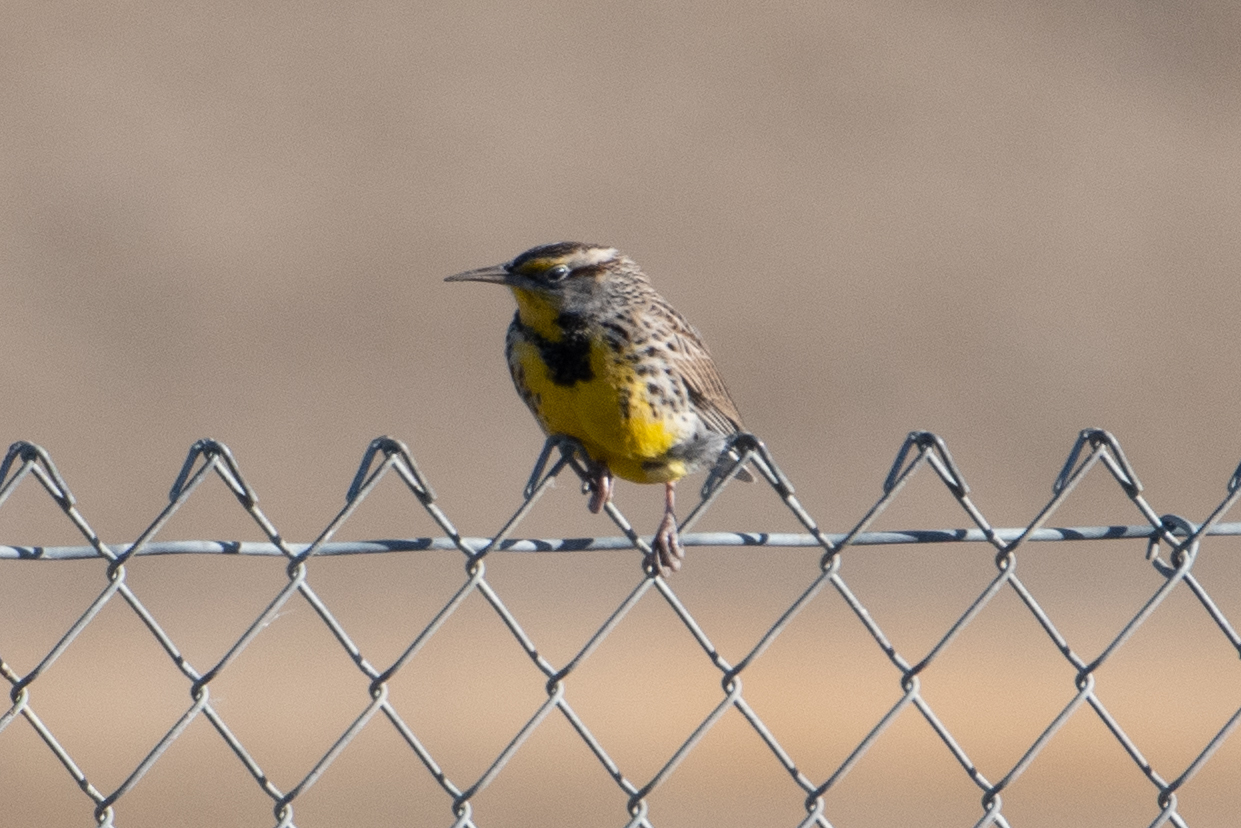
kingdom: Animalia
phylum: Chordata
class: Aves
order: Passeriformes
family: Icteridae
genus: Sturnella
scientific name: Sturnella neglecta
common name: Western meadowlark
